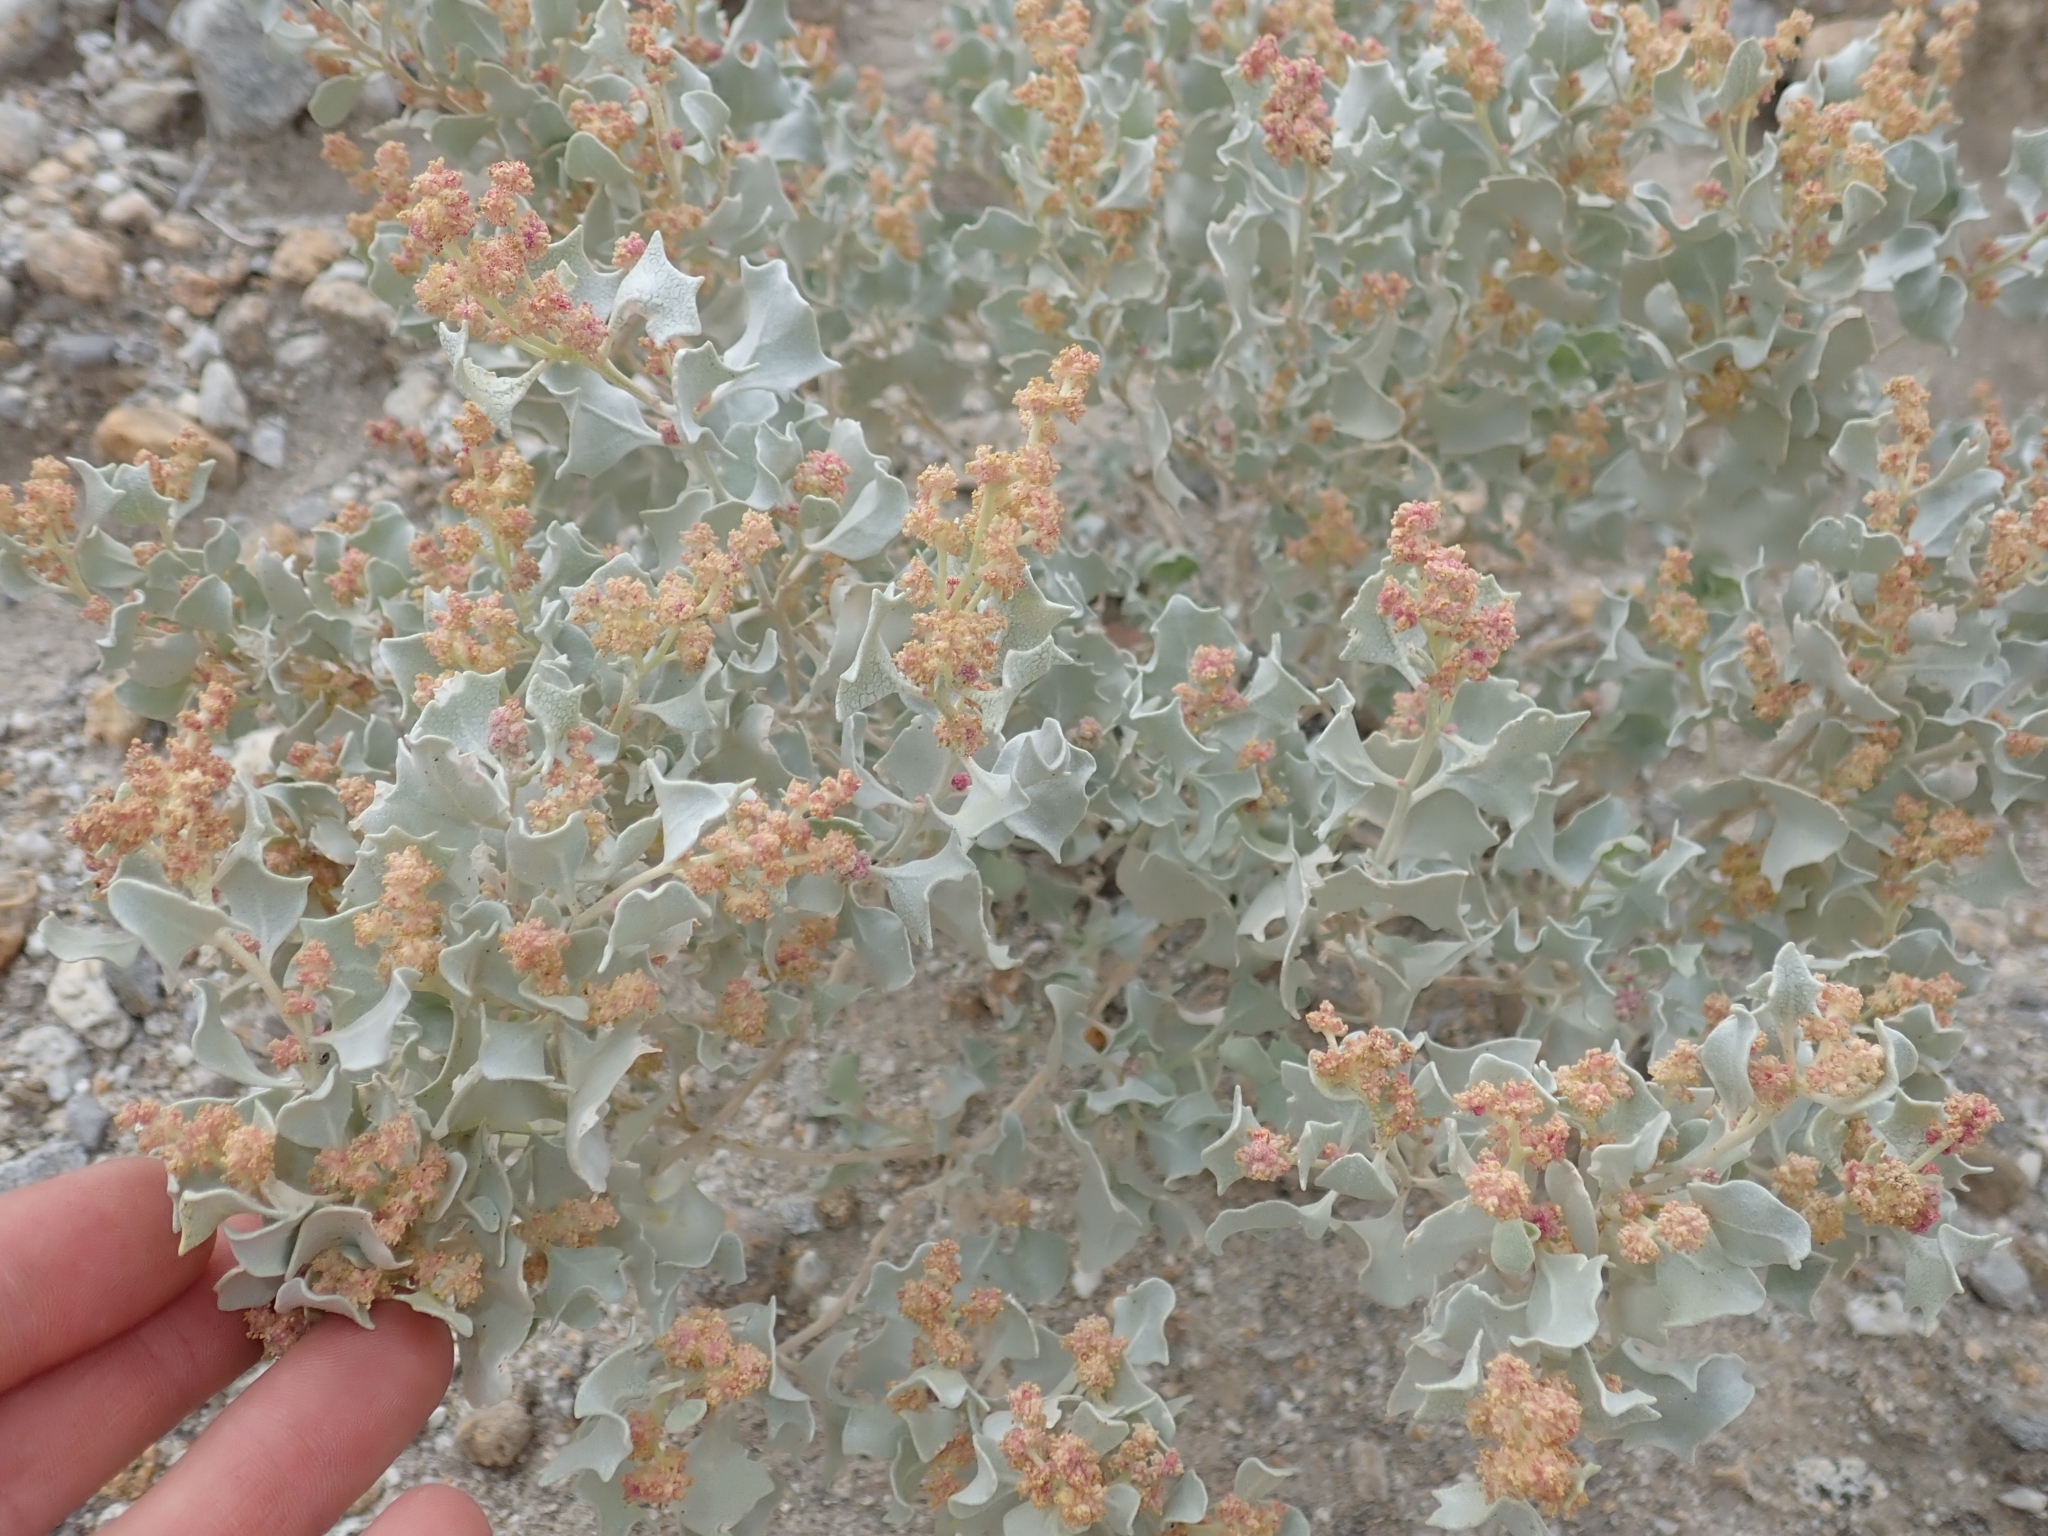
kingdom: Plantae
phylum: Tracheophyta
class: Magnoliopsida
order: Caryophyllales
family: Amaranthaceae
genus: Atriplex
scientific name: Atriplex hymenelytra
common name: Desert-holly
